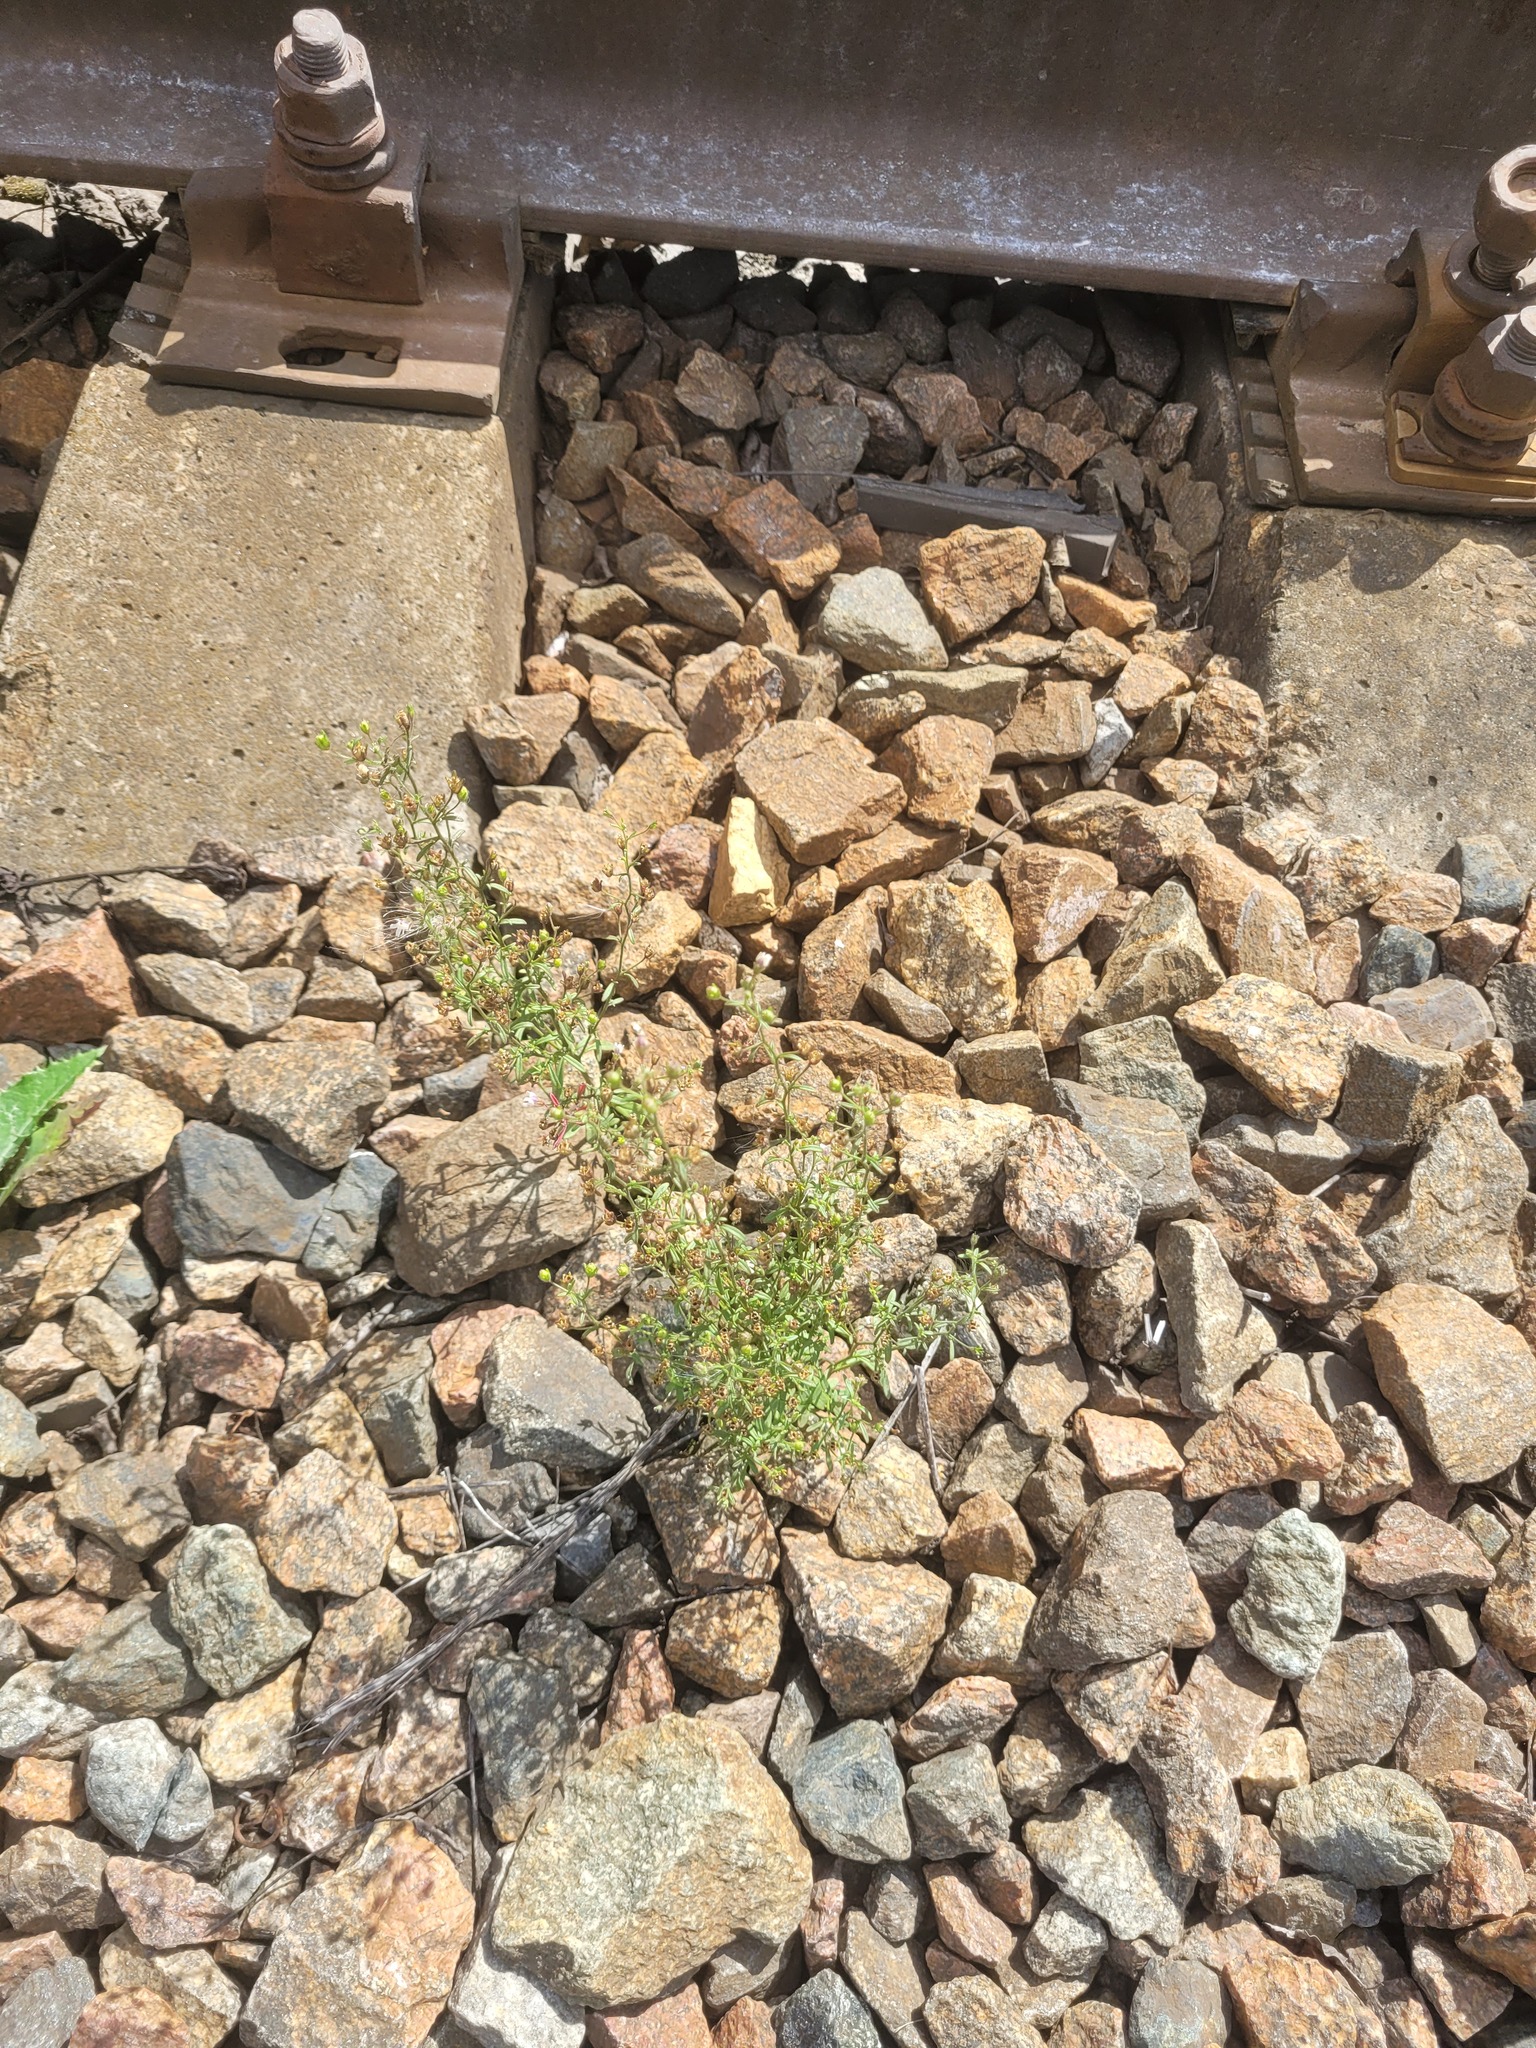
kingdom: Plantae
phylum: Tracheophyta
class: Magnoliopsida
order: Lamiales
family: Plantaginaceae
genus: Chaenorhinum
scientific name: Chaenorhinum minus
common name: Dwarf snapdragon
